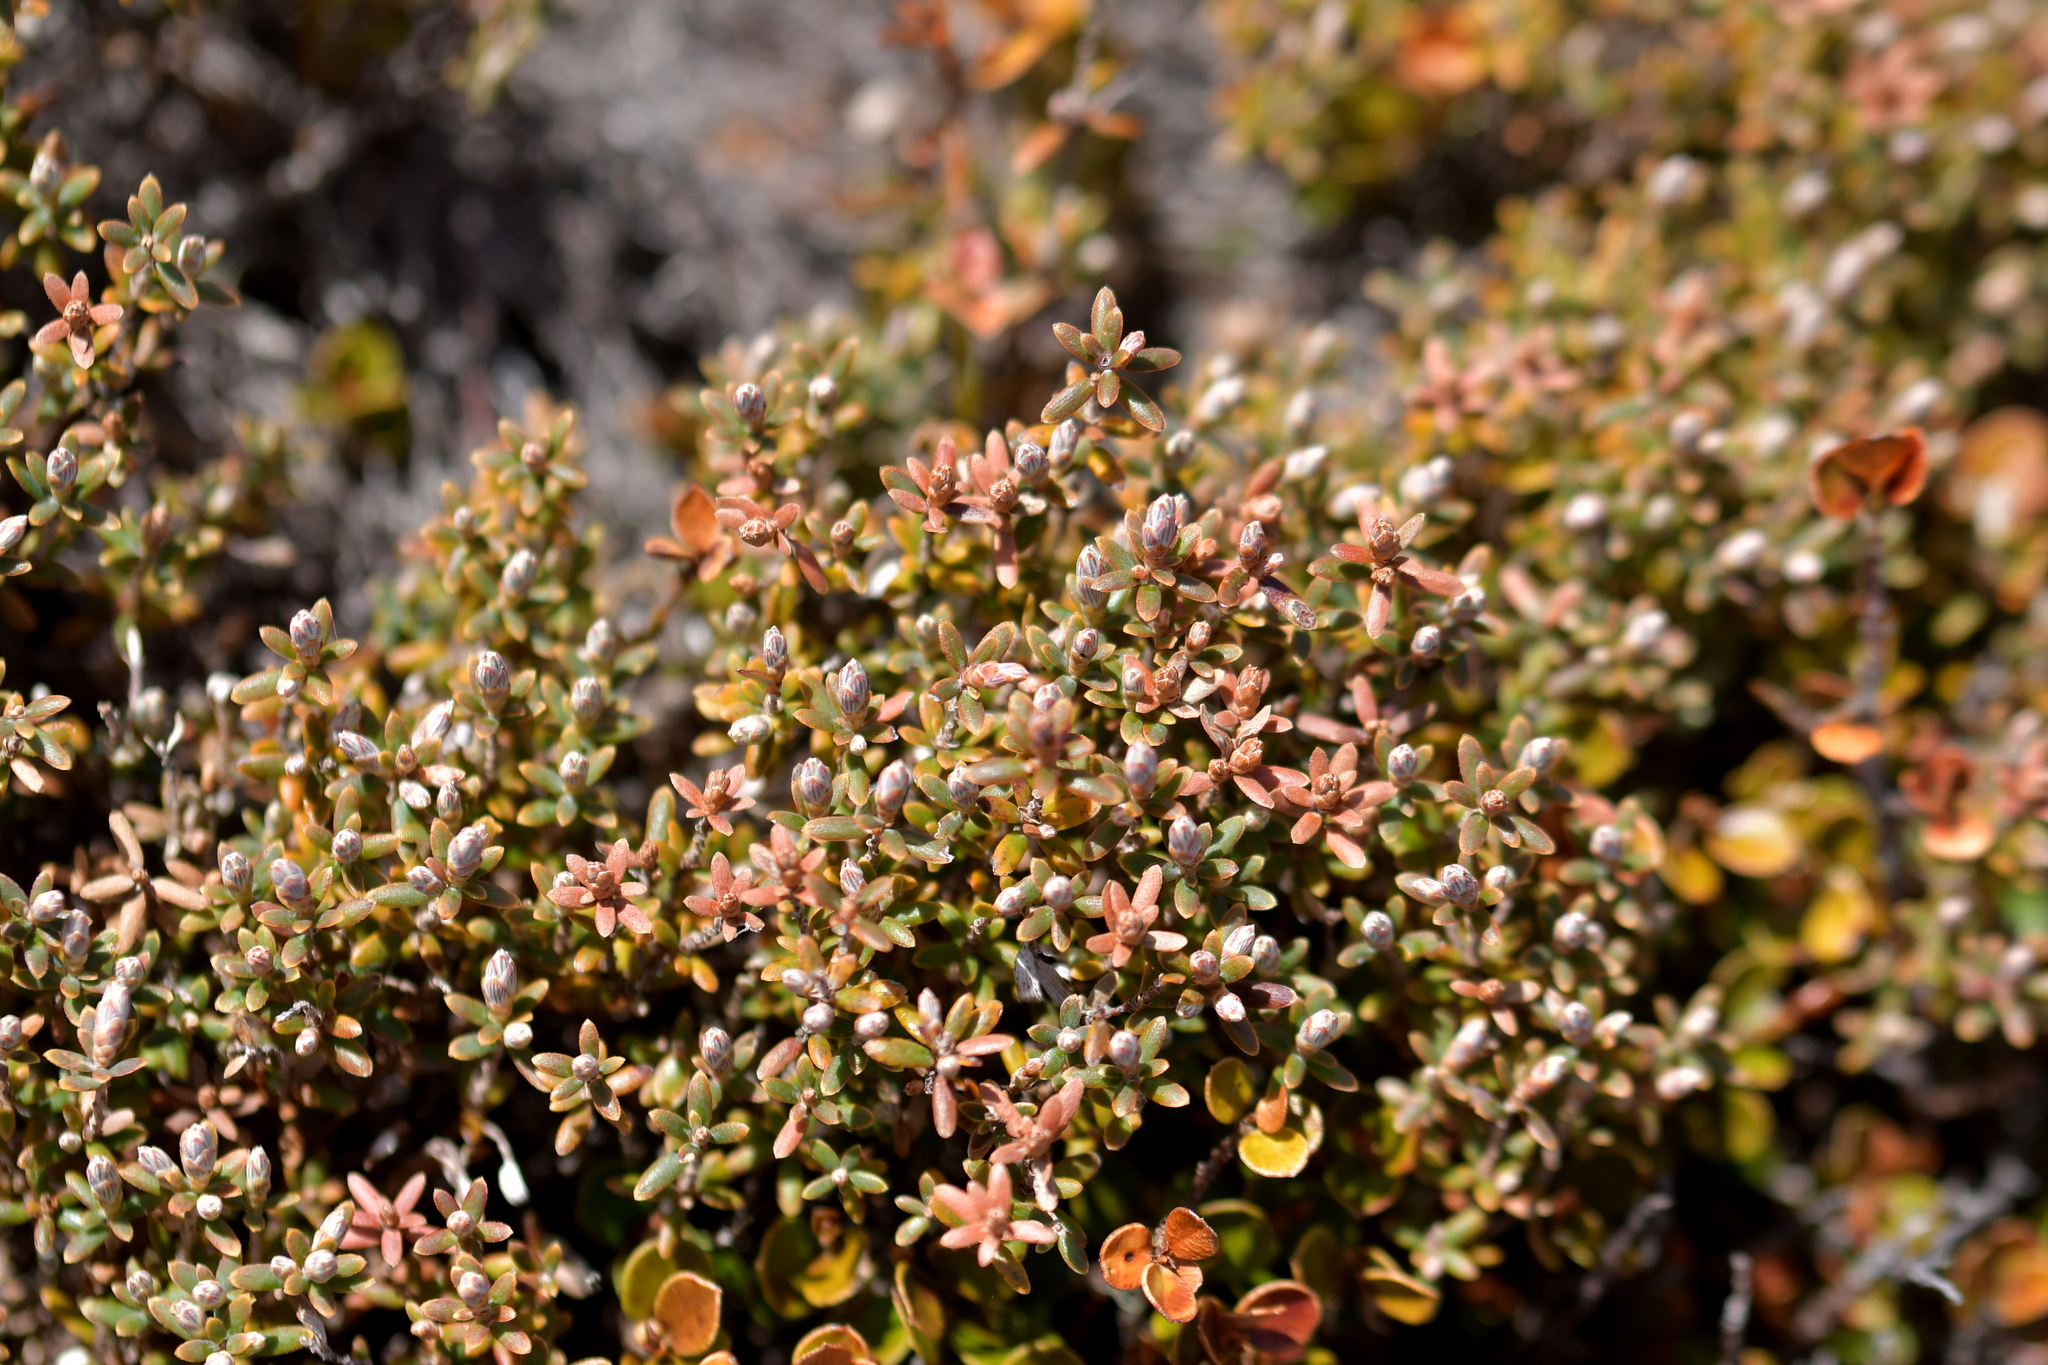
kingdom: Plantae
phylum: Tracheophyta
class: Magnoliopsida
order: Ericales
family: Ericaceae
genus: Acrothamnus
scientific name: Acrothamnus colensoi
